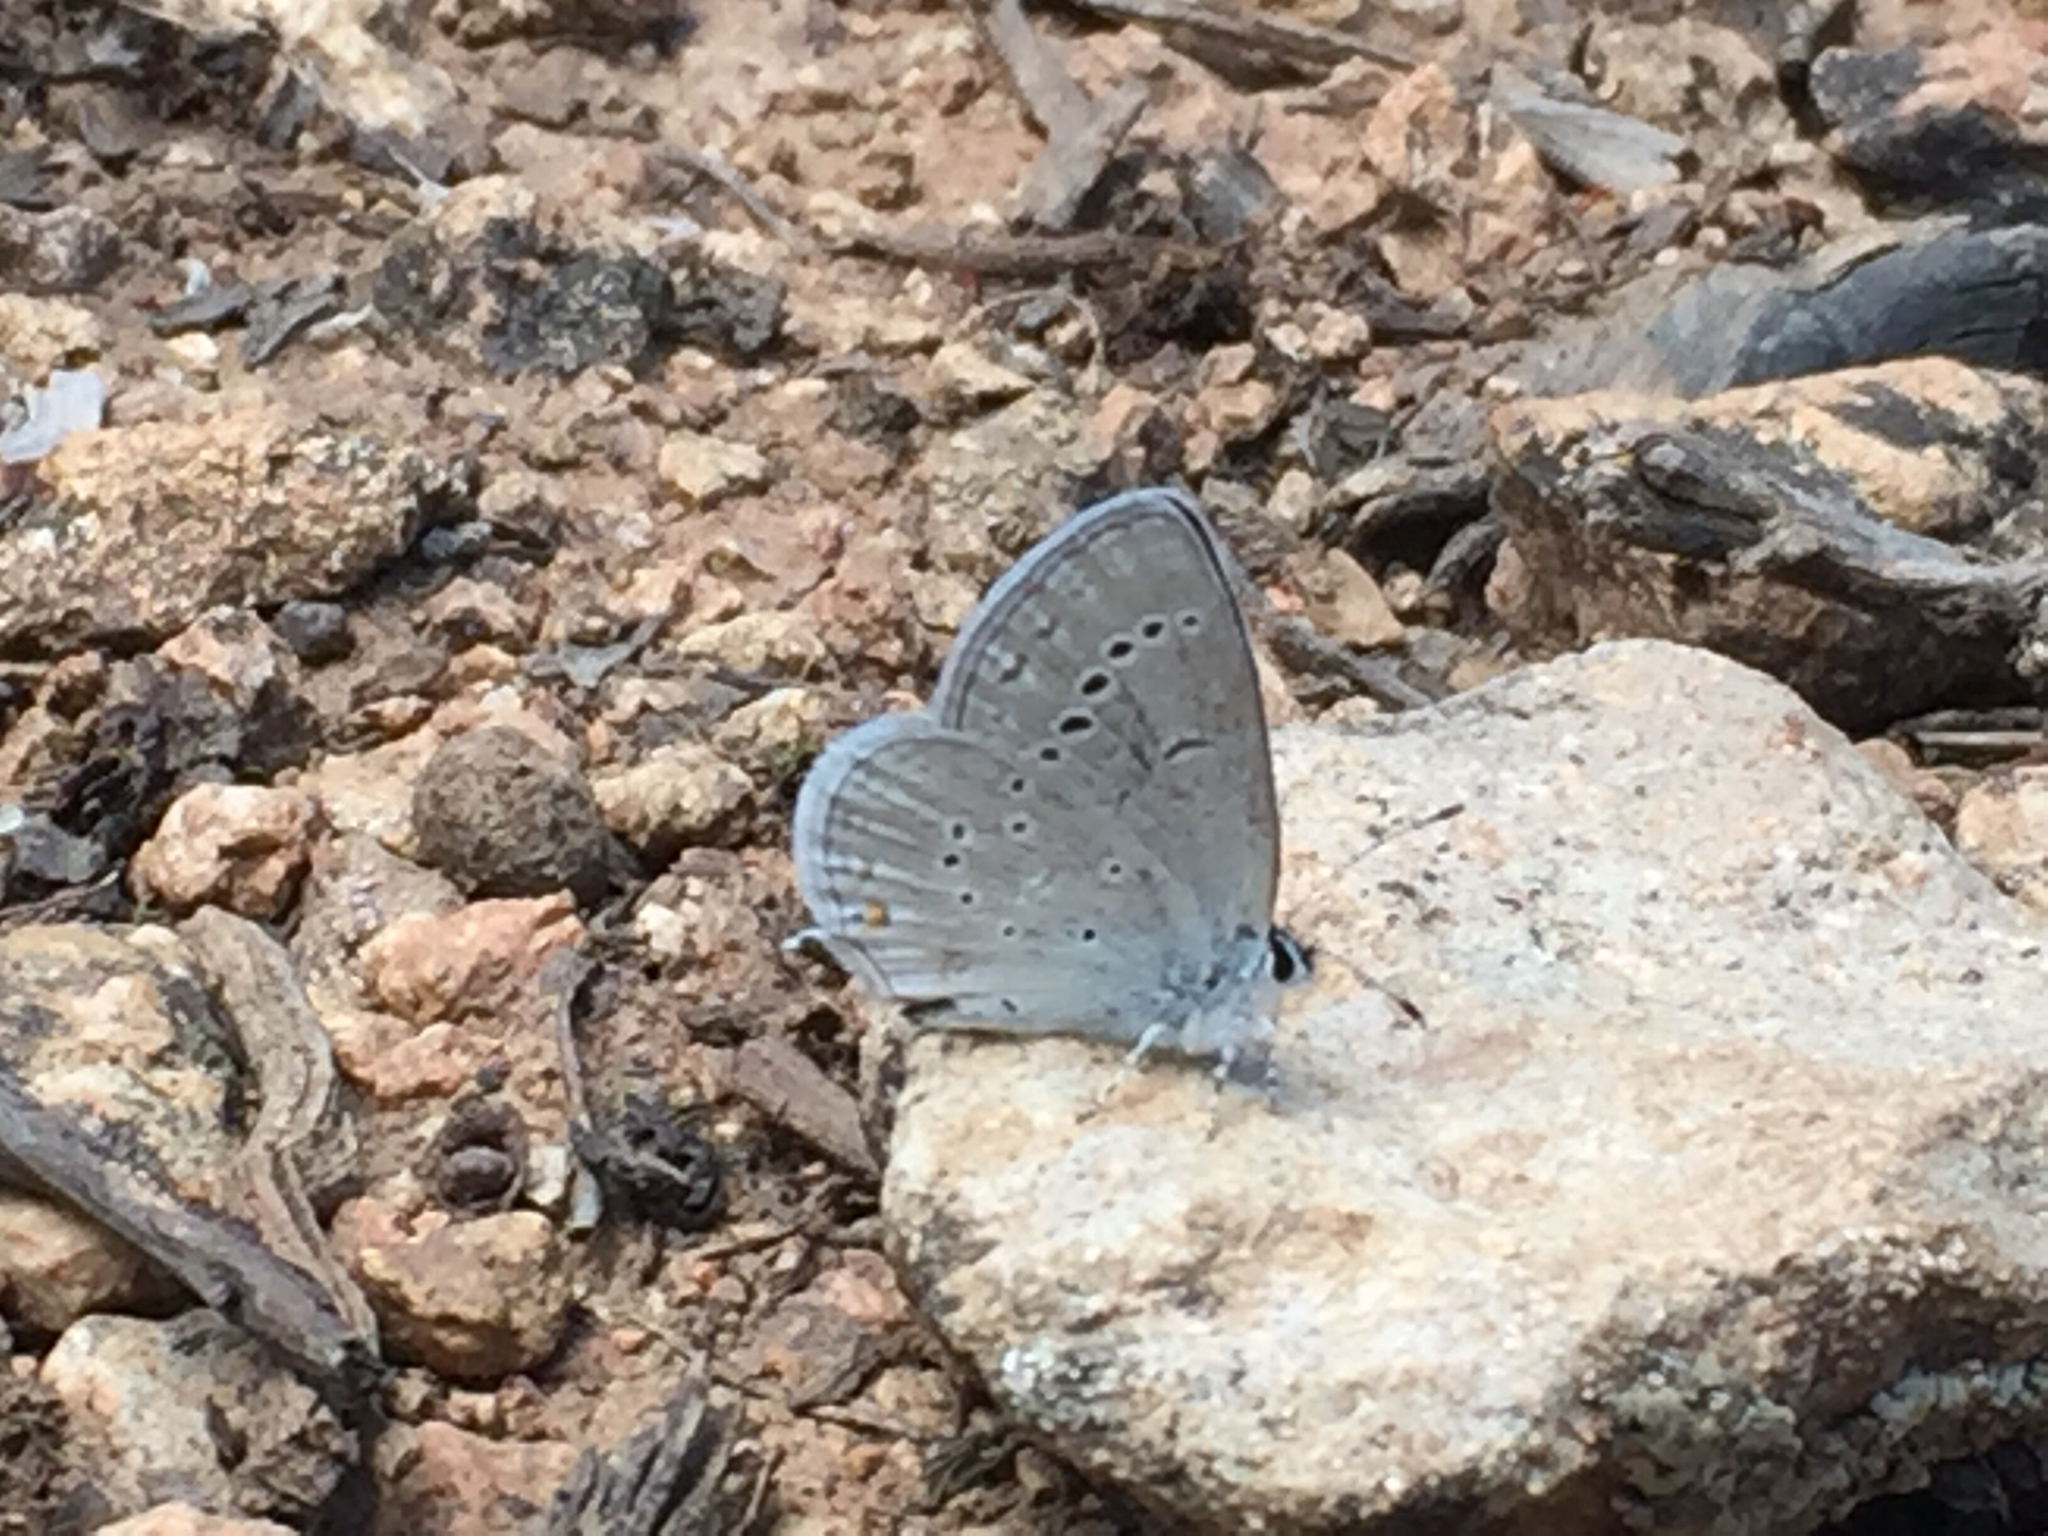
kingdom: Animalia
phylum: Arthropoda
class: Insecta
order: Lepidoptera
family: Lycaenidae
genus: Elkalyce
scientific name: Elkalyce amyntula
